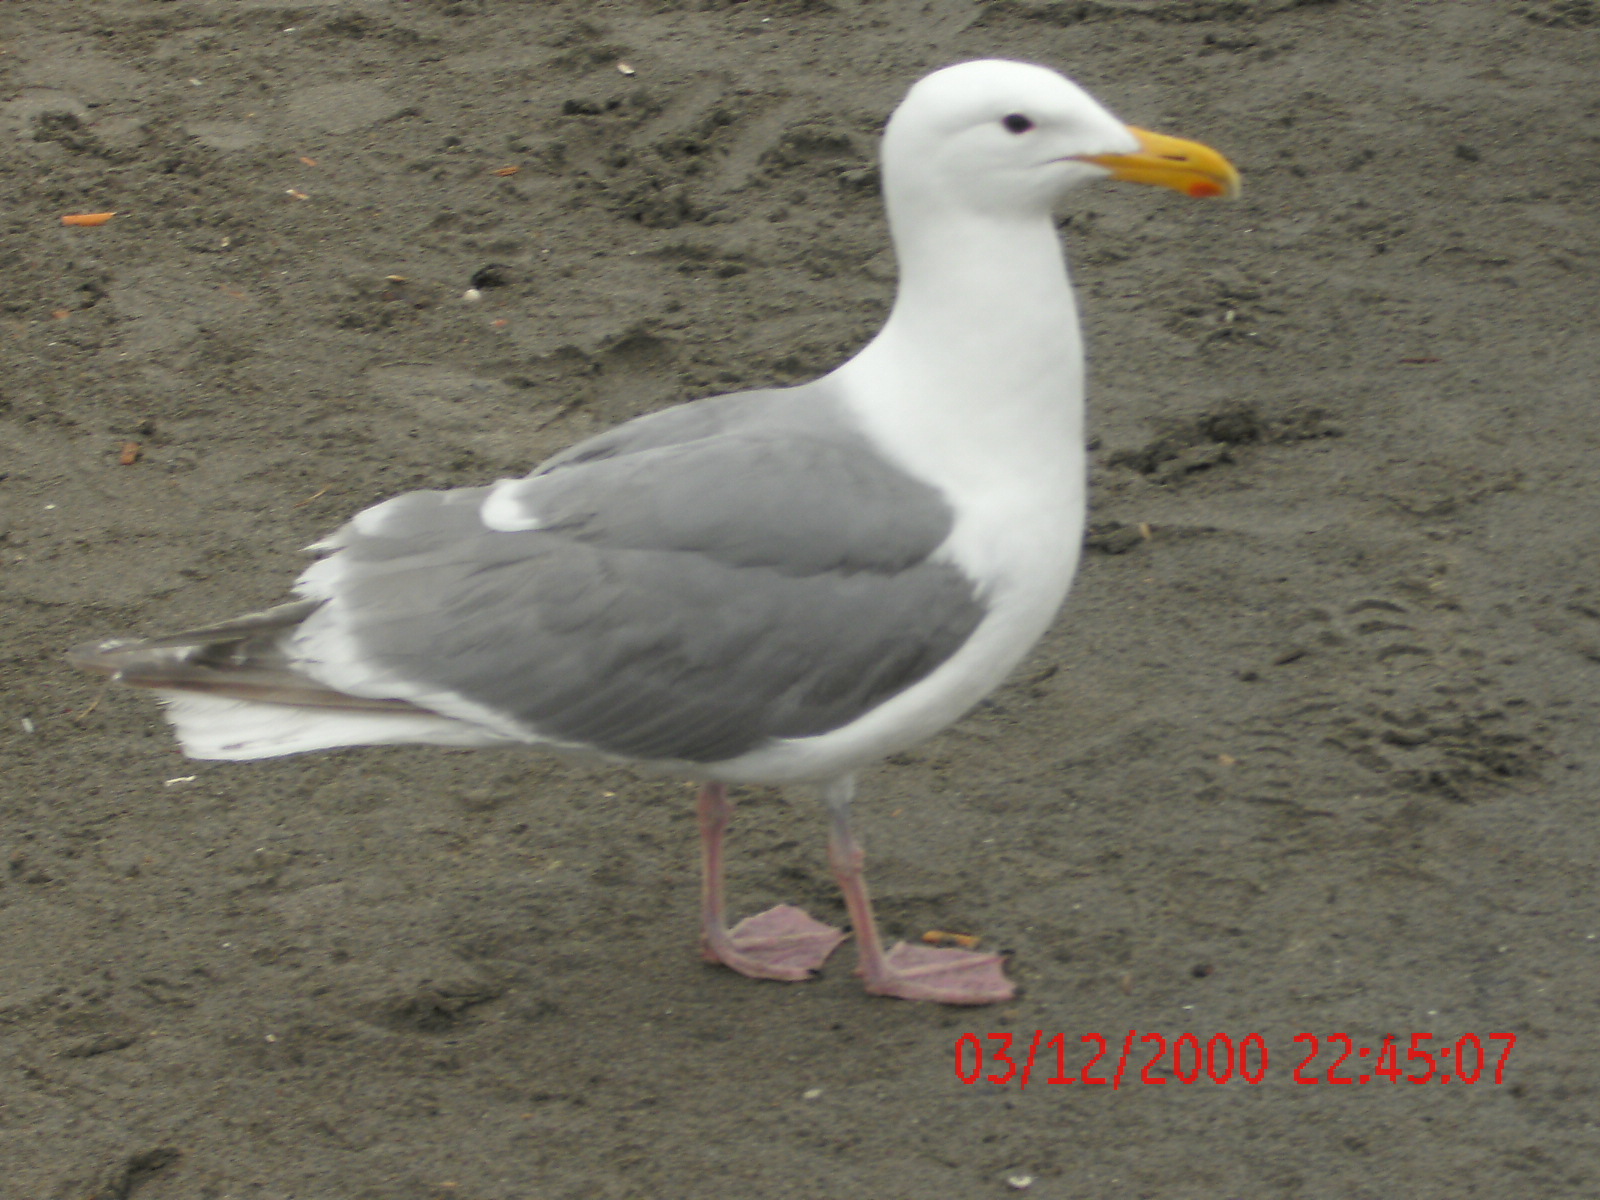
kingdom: Animalia
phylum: Chordata
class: Aves
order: Charadriiformes
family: Laridae
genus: Larus
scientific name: Larus
